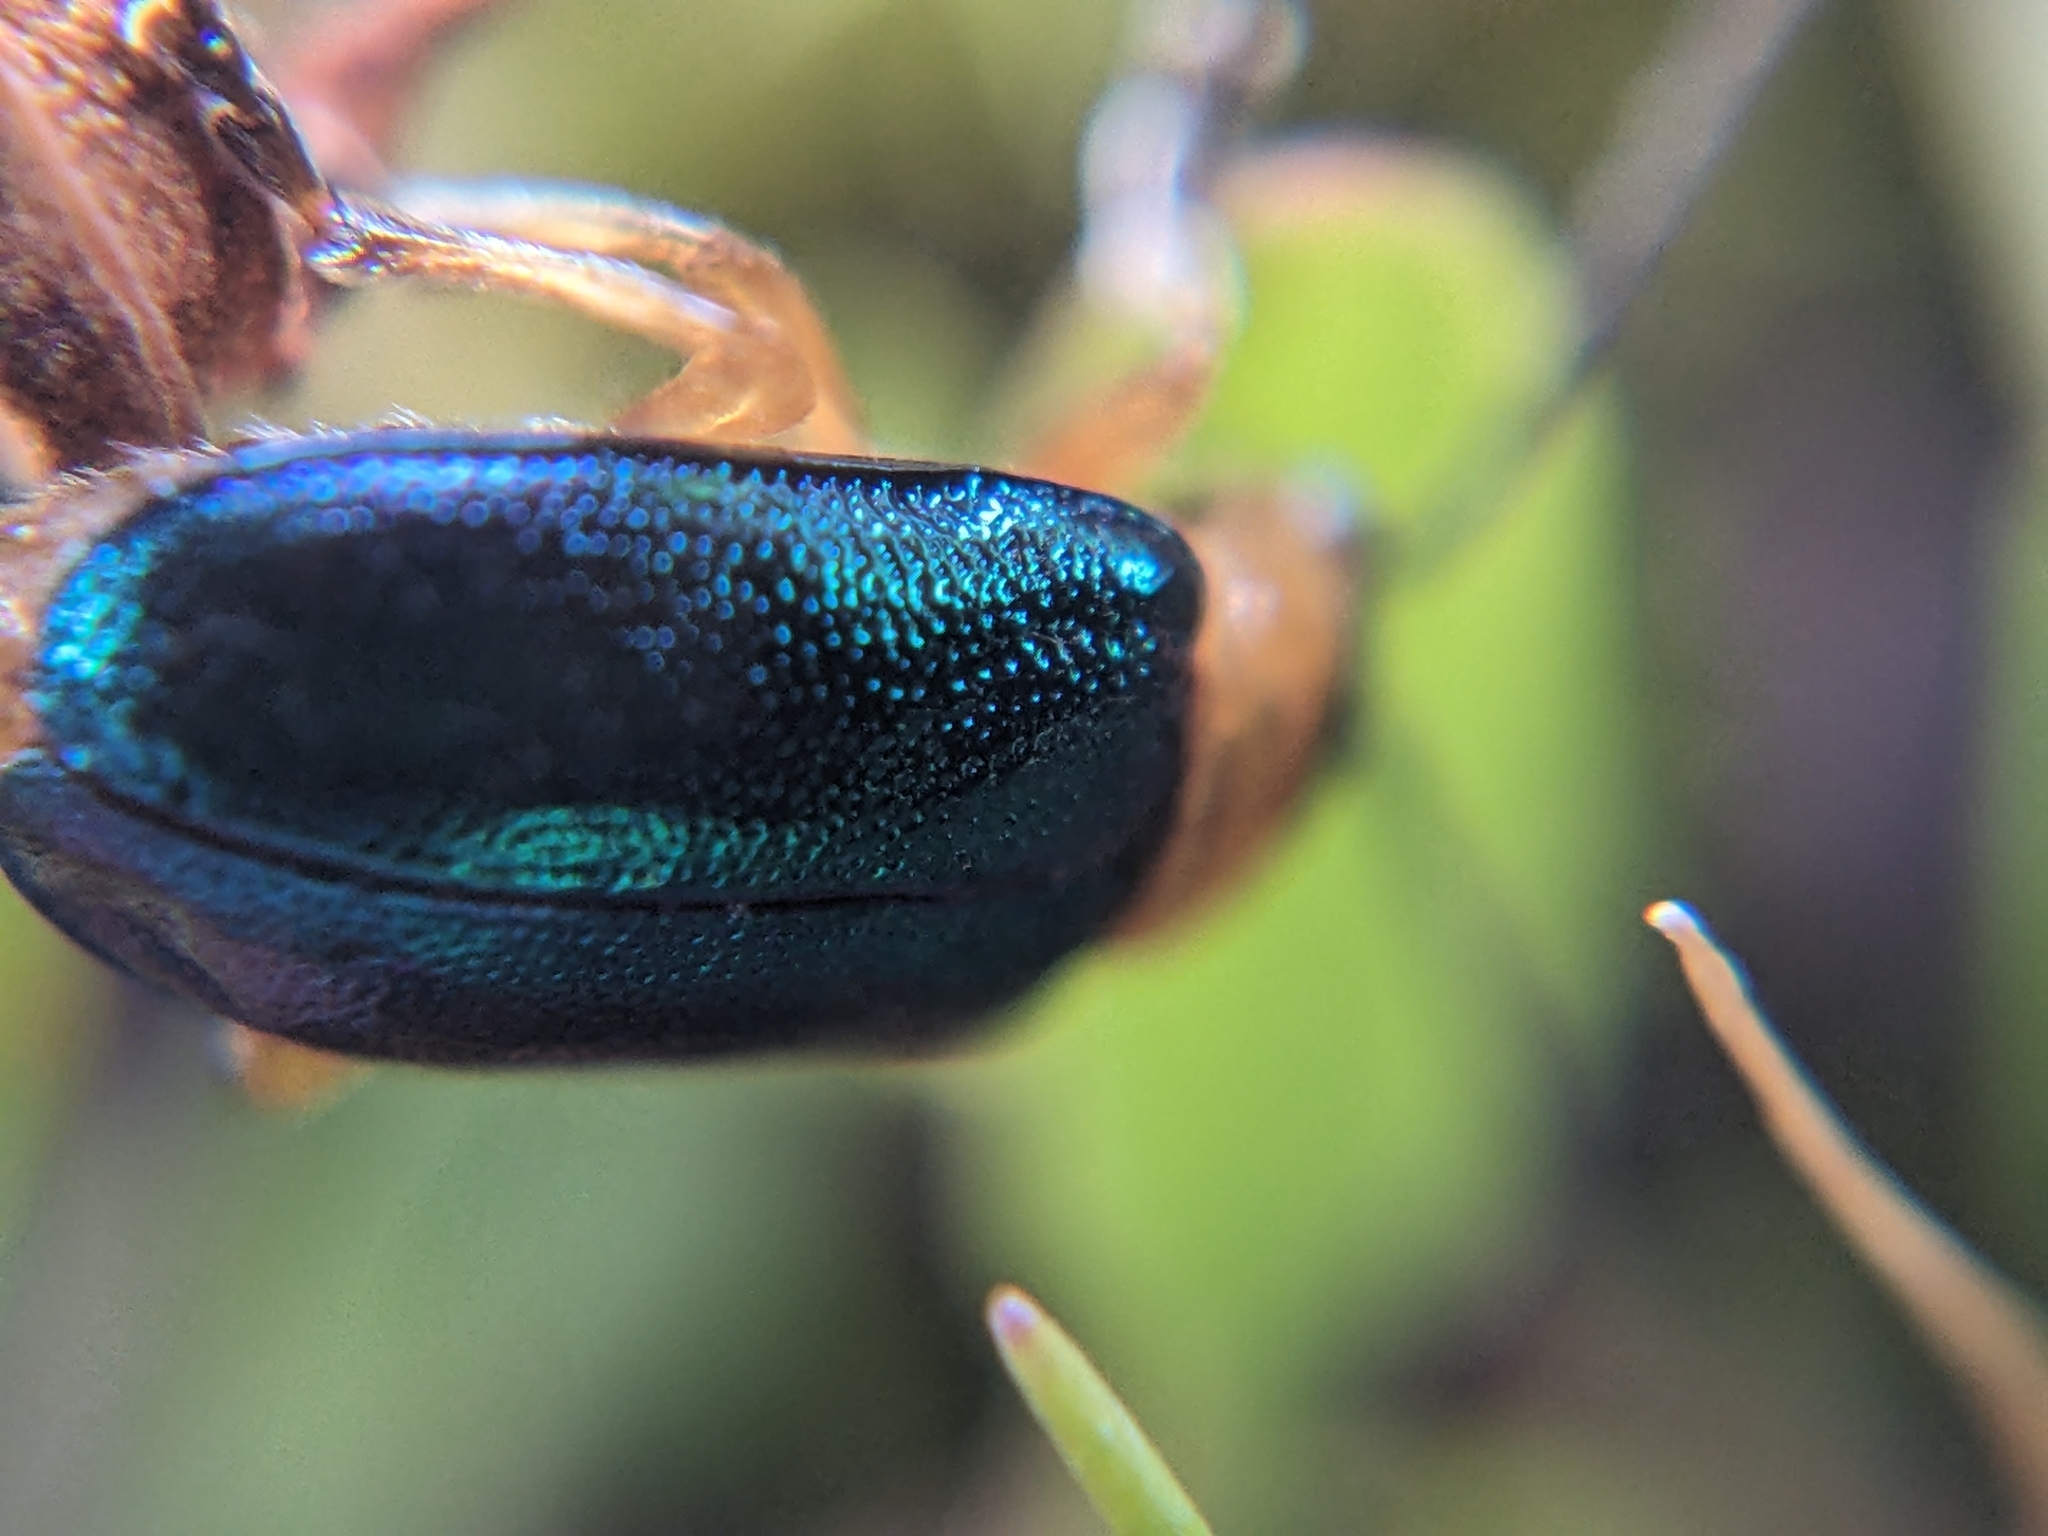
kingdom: Animalia
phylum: Arthropoda
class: Insecta
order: Coleoptera
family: Chrysomelidae
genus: Sermylassa
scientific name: Sermylassa halensis
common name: Leaf beetle
